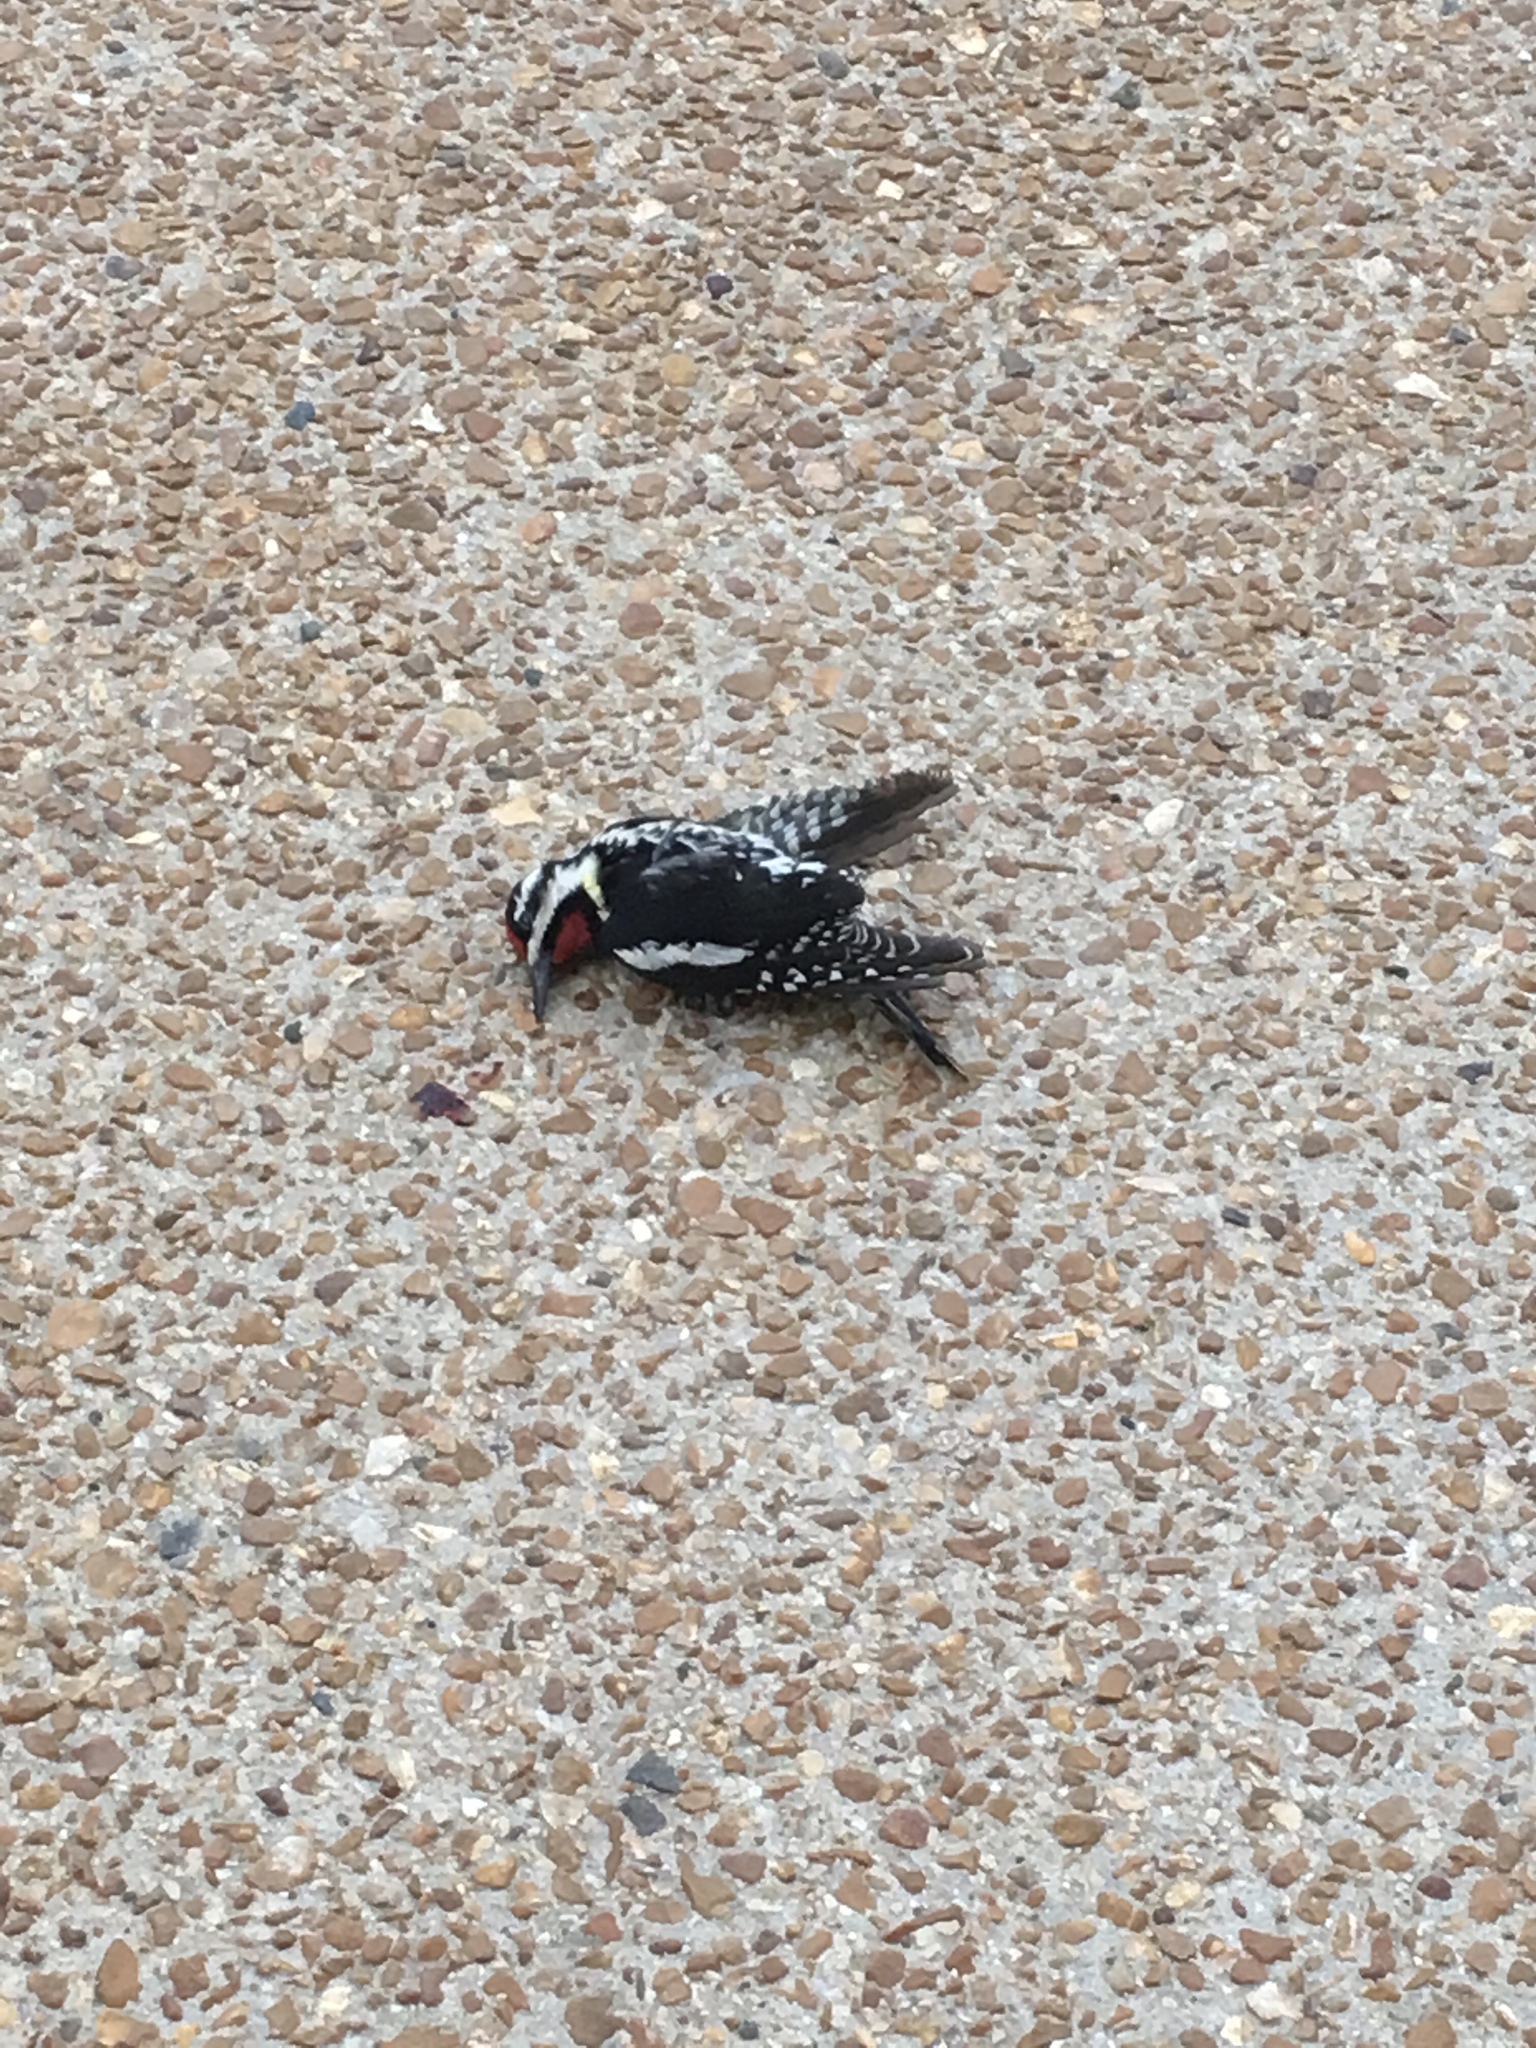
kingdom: Animalia
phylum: Chordata
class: Aves
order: Piciformes
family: Picidae
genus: Sphyrapicus
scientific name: Sphyrapicus varius
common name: Yellow-bellied sapsucker
